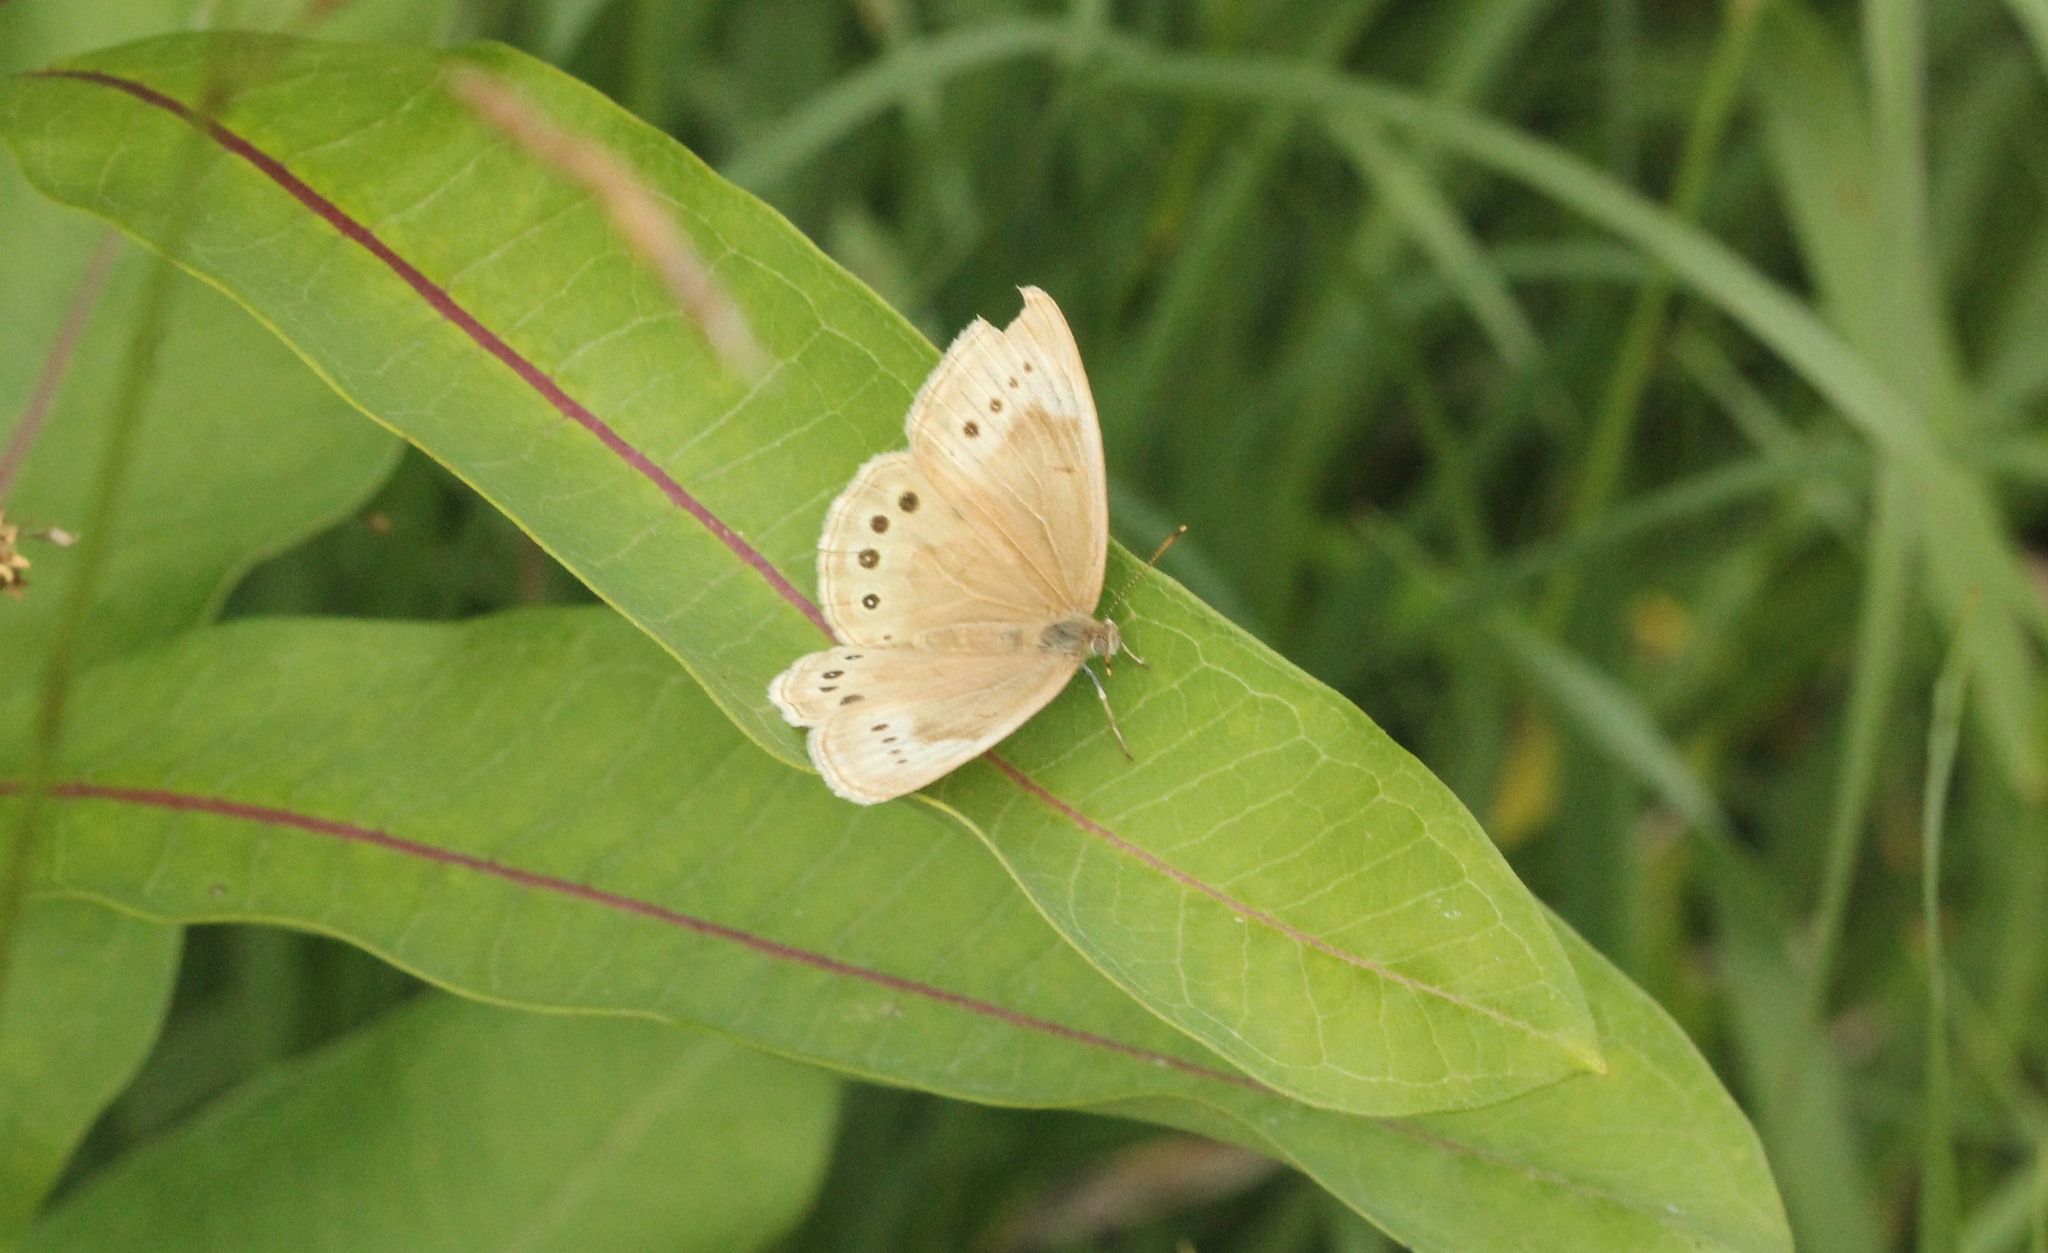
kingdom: Animalia
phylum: Arthropoda
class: Insecta
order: Lepidoptera
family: Nymphalidae
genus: Lethe
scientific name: Lethe eurydice
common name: Eyed brown
